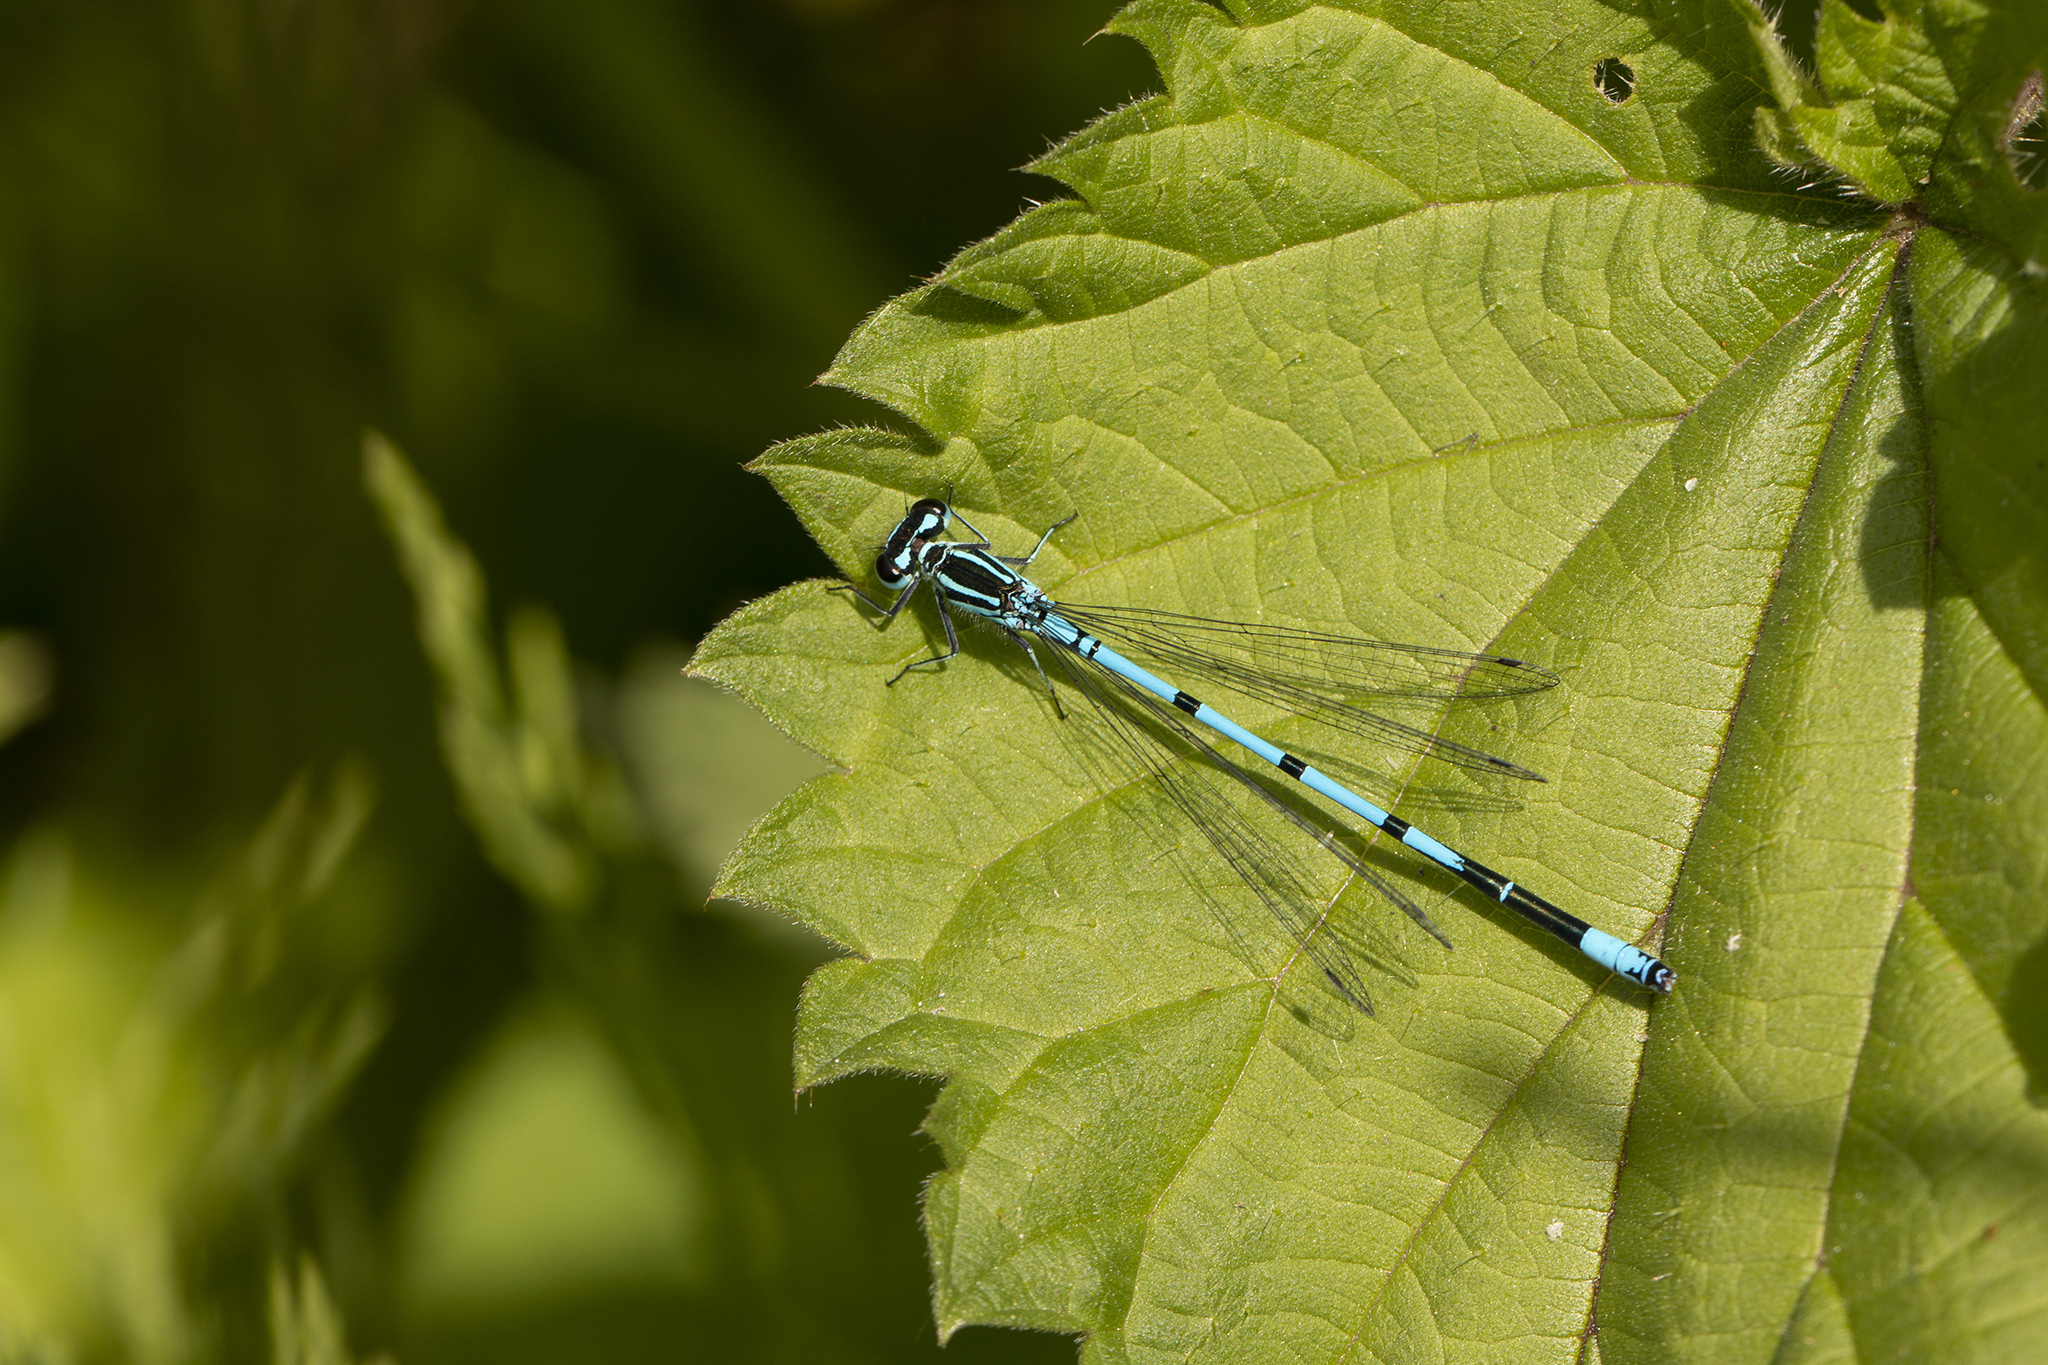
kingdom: Animalia
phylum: Arthropoda
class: Insecta
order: Odonata
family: Coenagrionidae
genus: Coenagrion
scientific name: Coenagrion puella
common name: Azure damselfly
